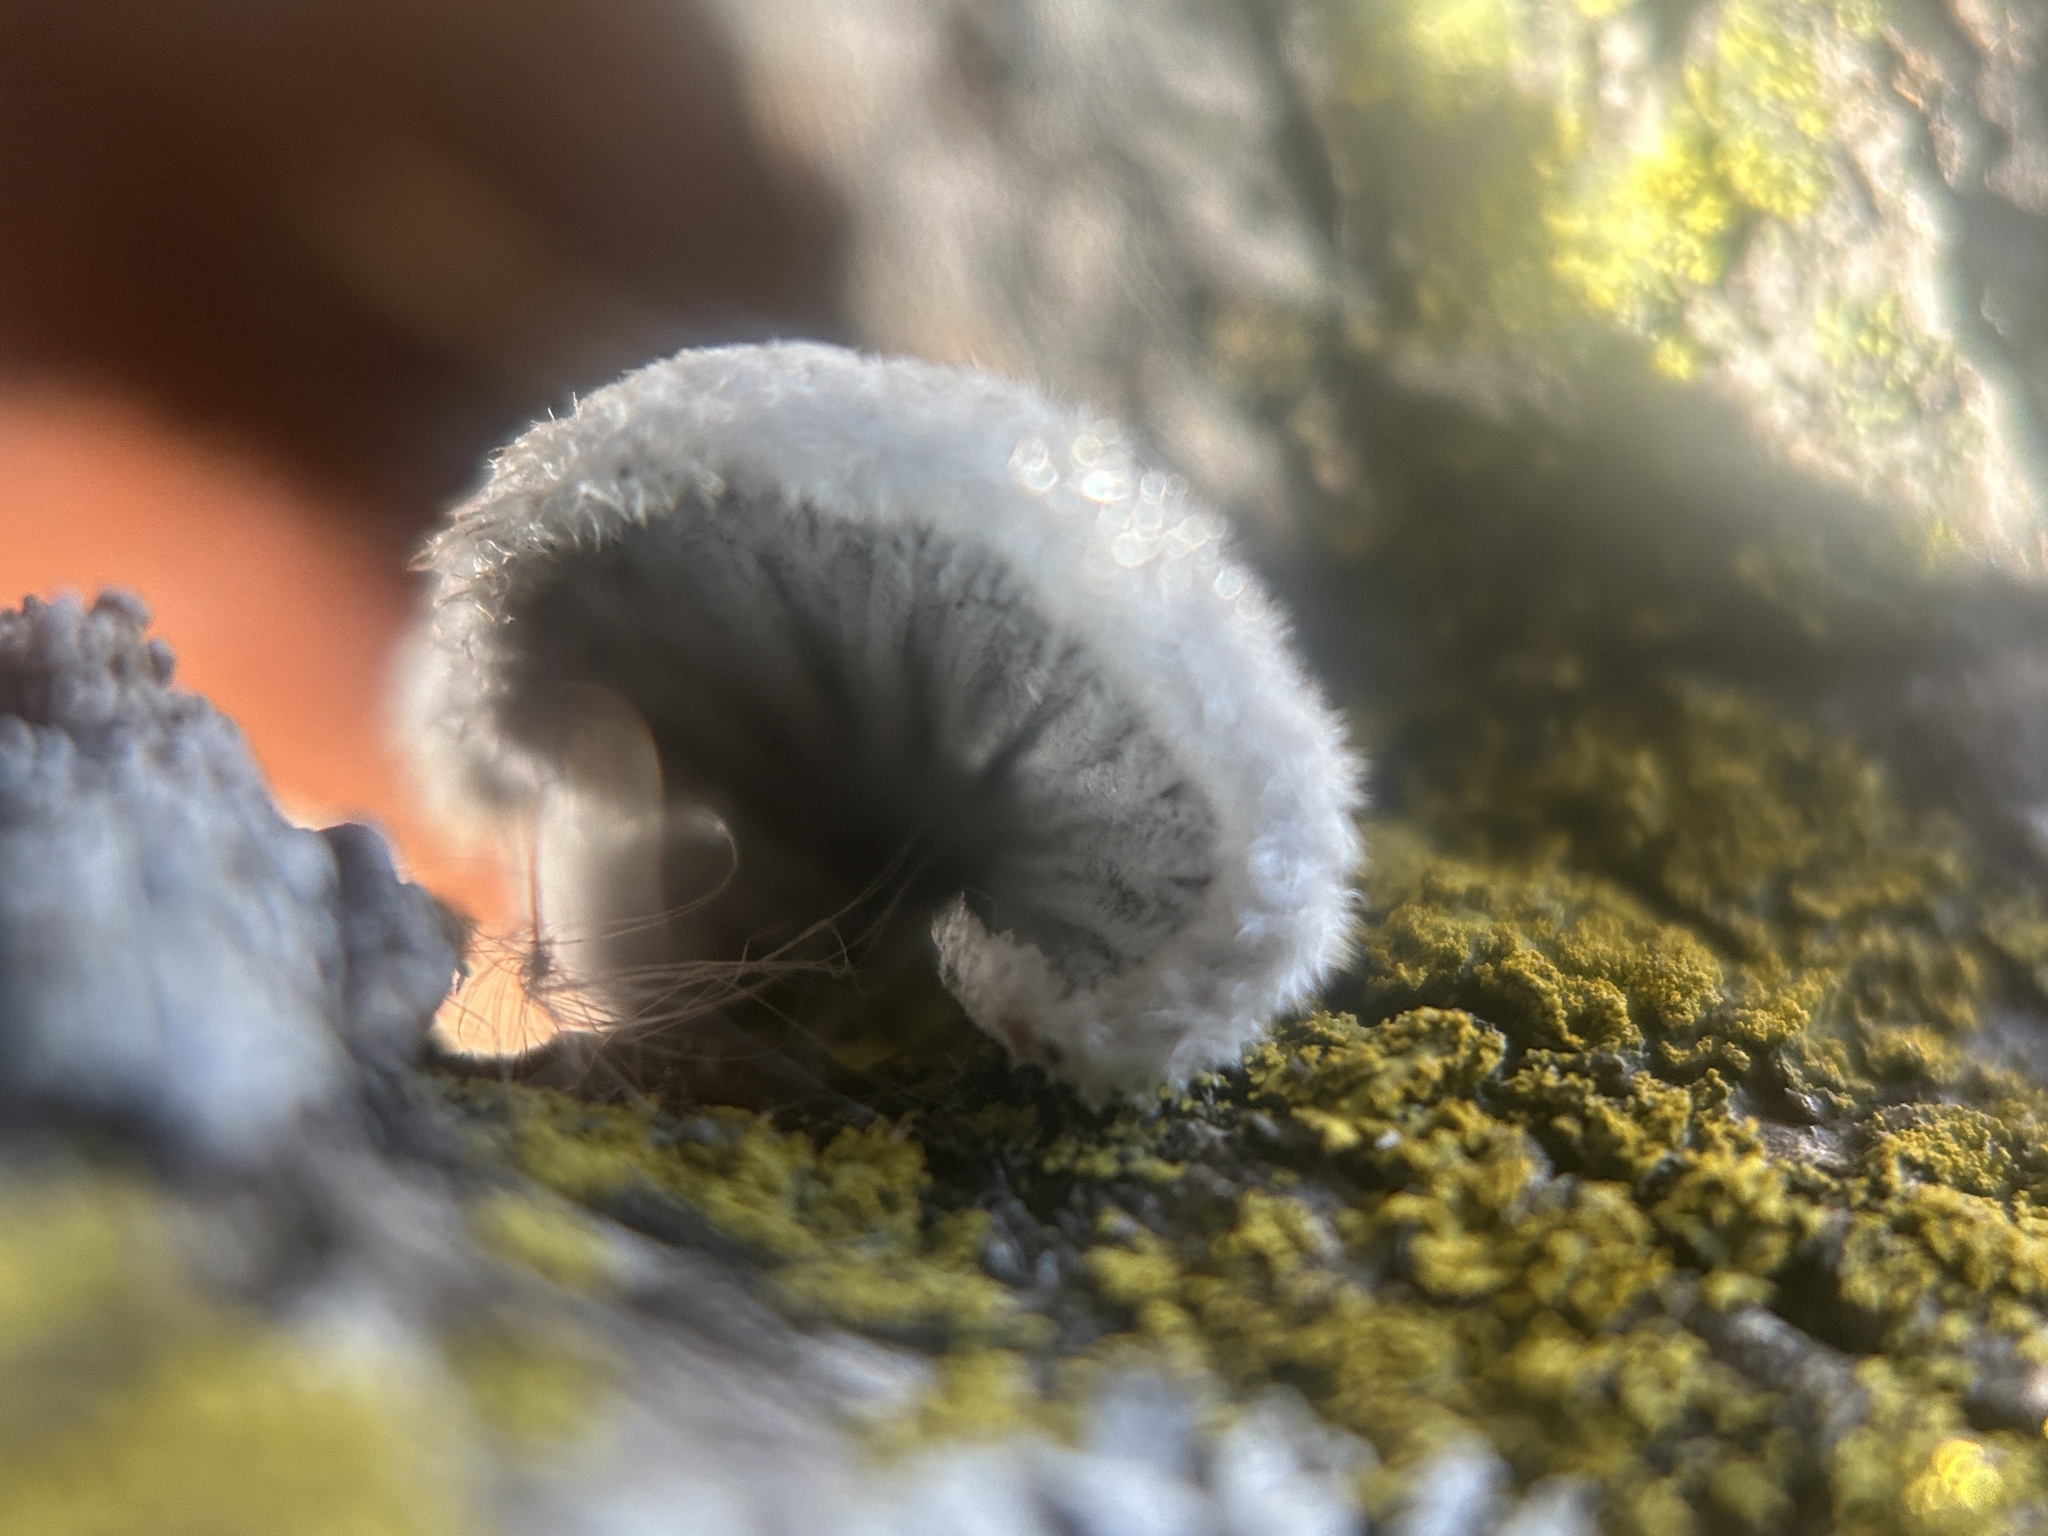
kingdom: Fungi
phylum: Basidiomycota
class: Agaricomycetes
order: Agaricales
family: Schizophyllaceae
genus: Schizophyllum
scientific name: Schizophyllum commune
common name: Common porecrust
